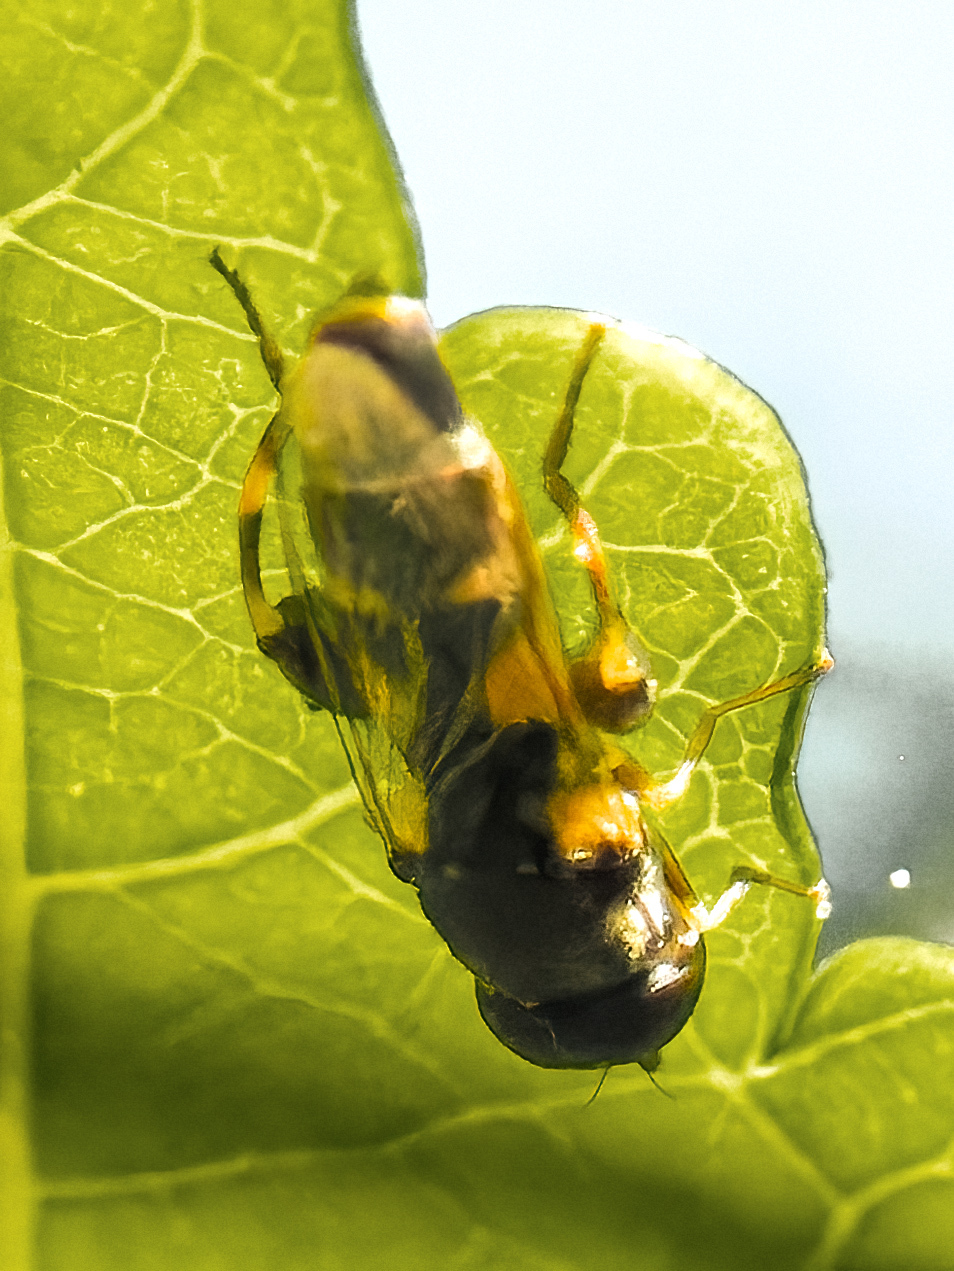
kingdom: Animalia
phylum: Arthropoda
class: Insecta
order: Diptera
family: Syrphidae
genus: Syritta
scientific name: Syritta pipiens
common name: Hover fly
